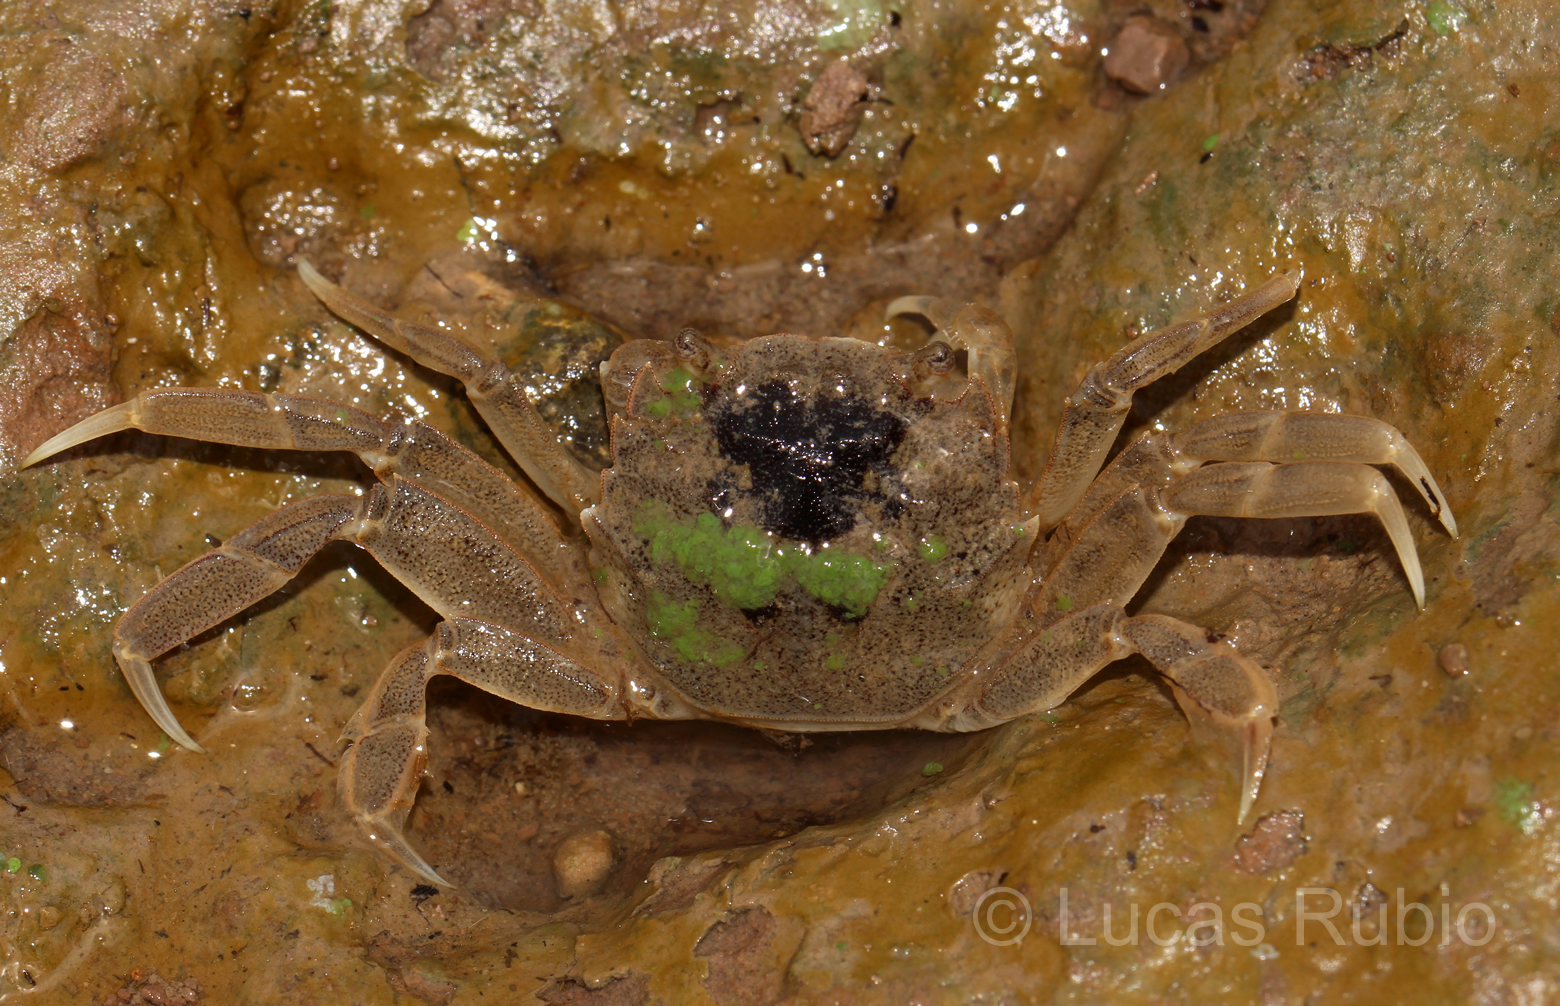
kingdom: Animalia
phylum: Arthropoda
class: Malacostraca
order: Decapoda
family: Varunidae
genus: Cyrtograpsus
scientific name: Cyrtograpsus angulatus
